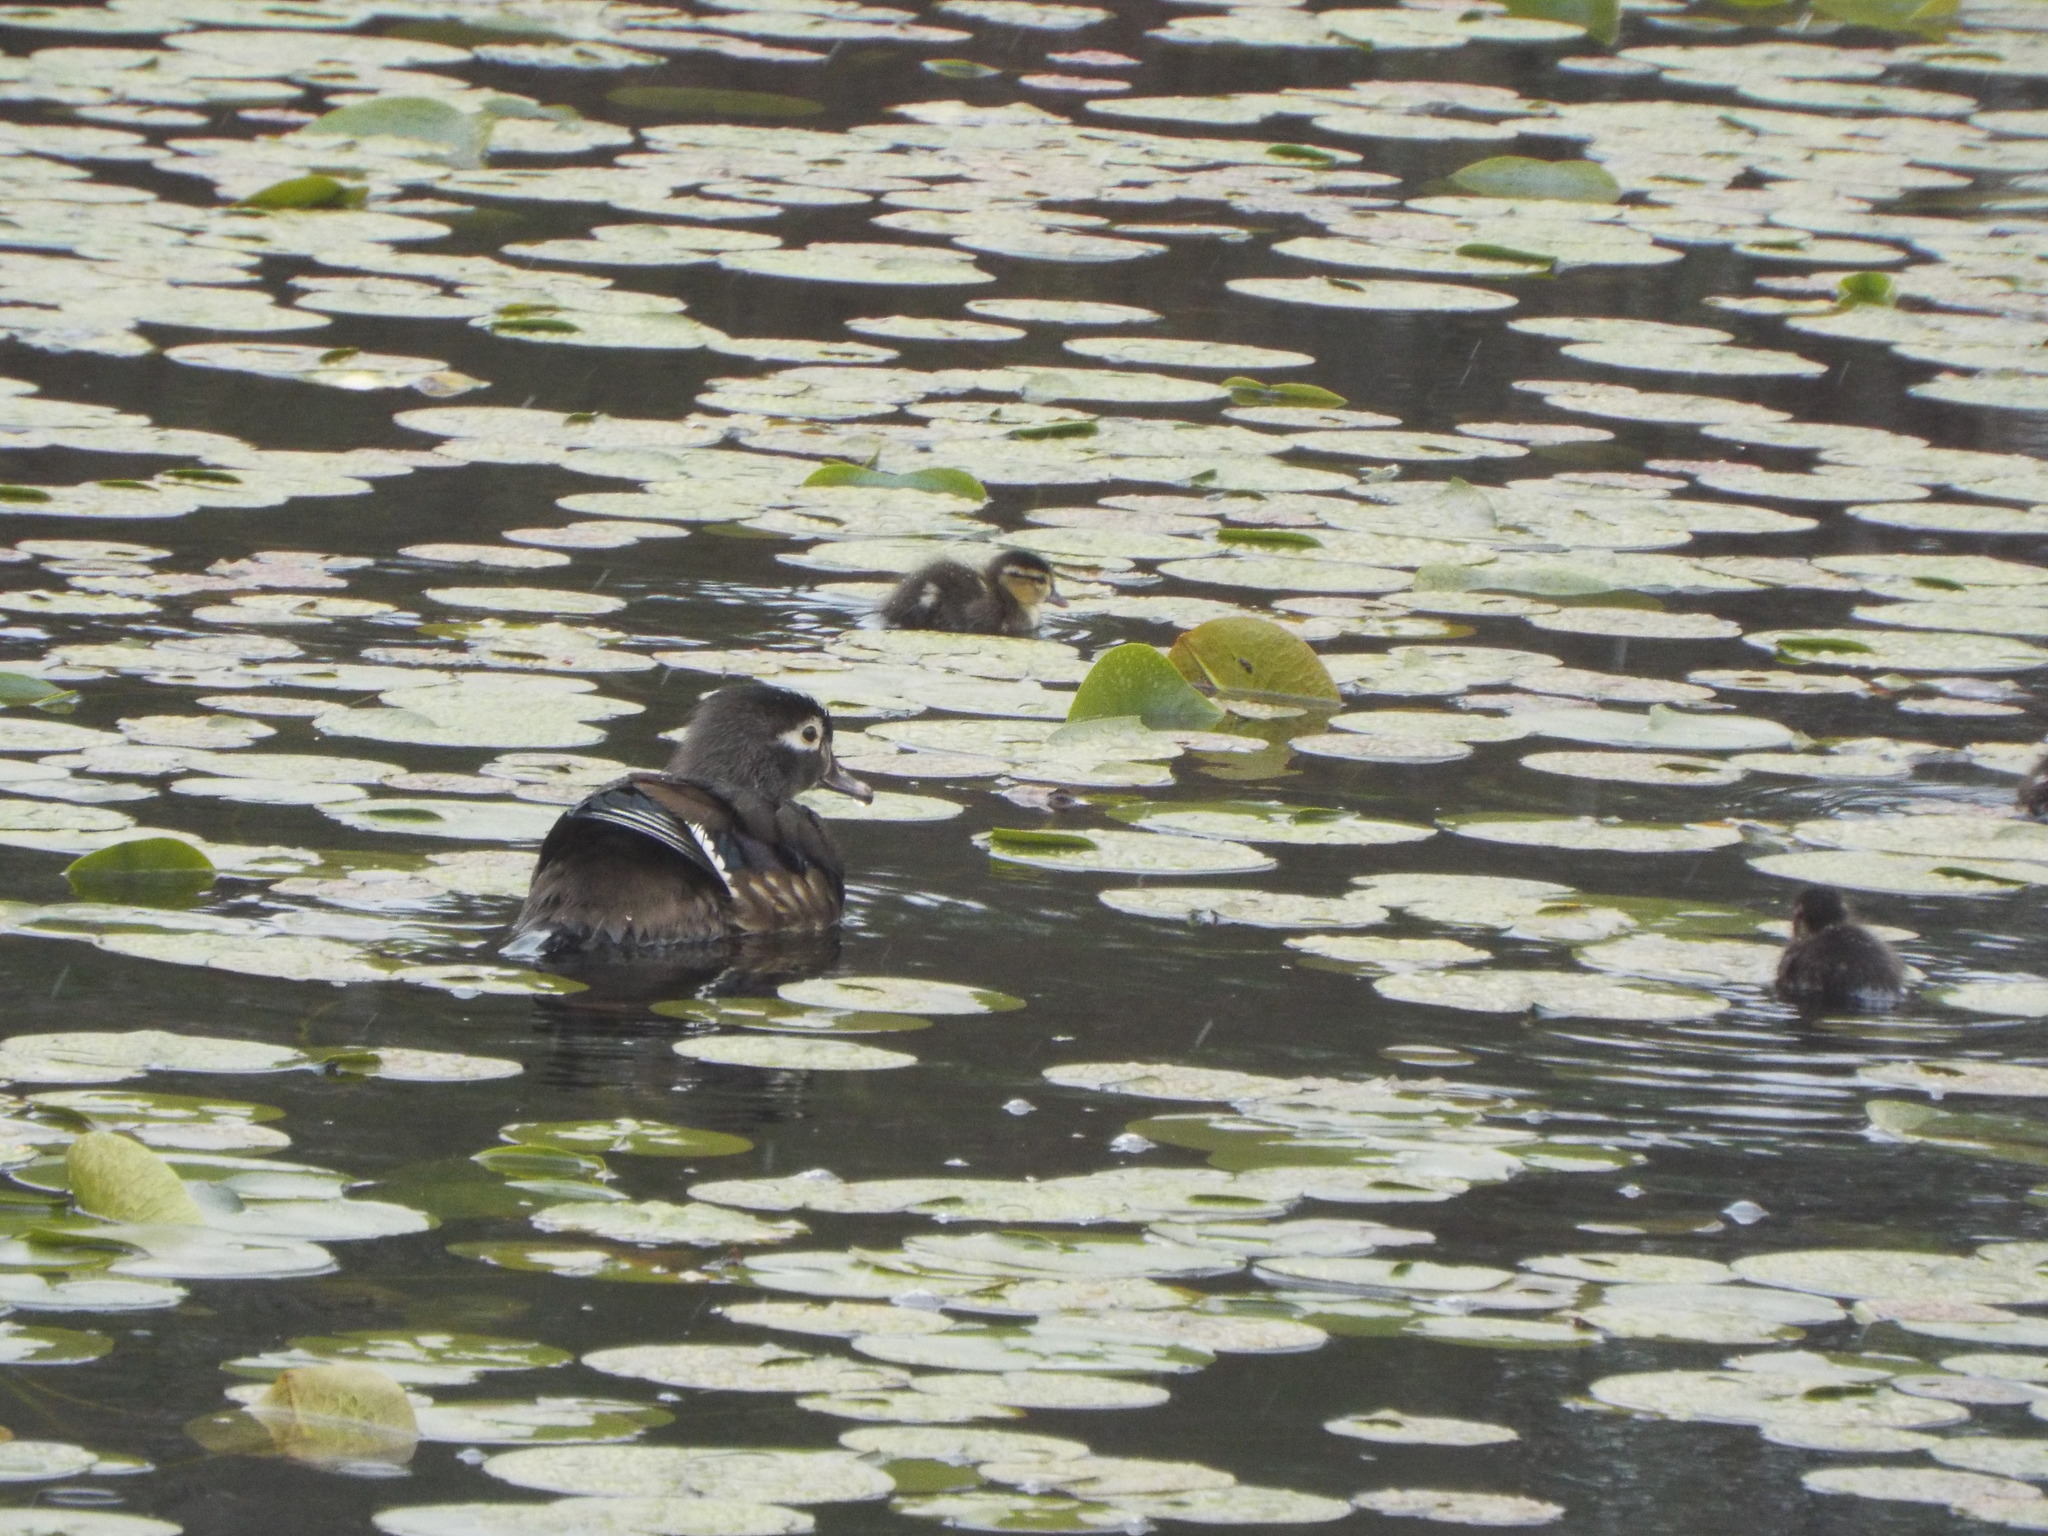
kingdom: Animalia
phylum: Chordata
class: Aves
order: Anseriformes
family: Anatidae
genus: Aix
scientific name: Aix sponsa
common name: Wood duck
